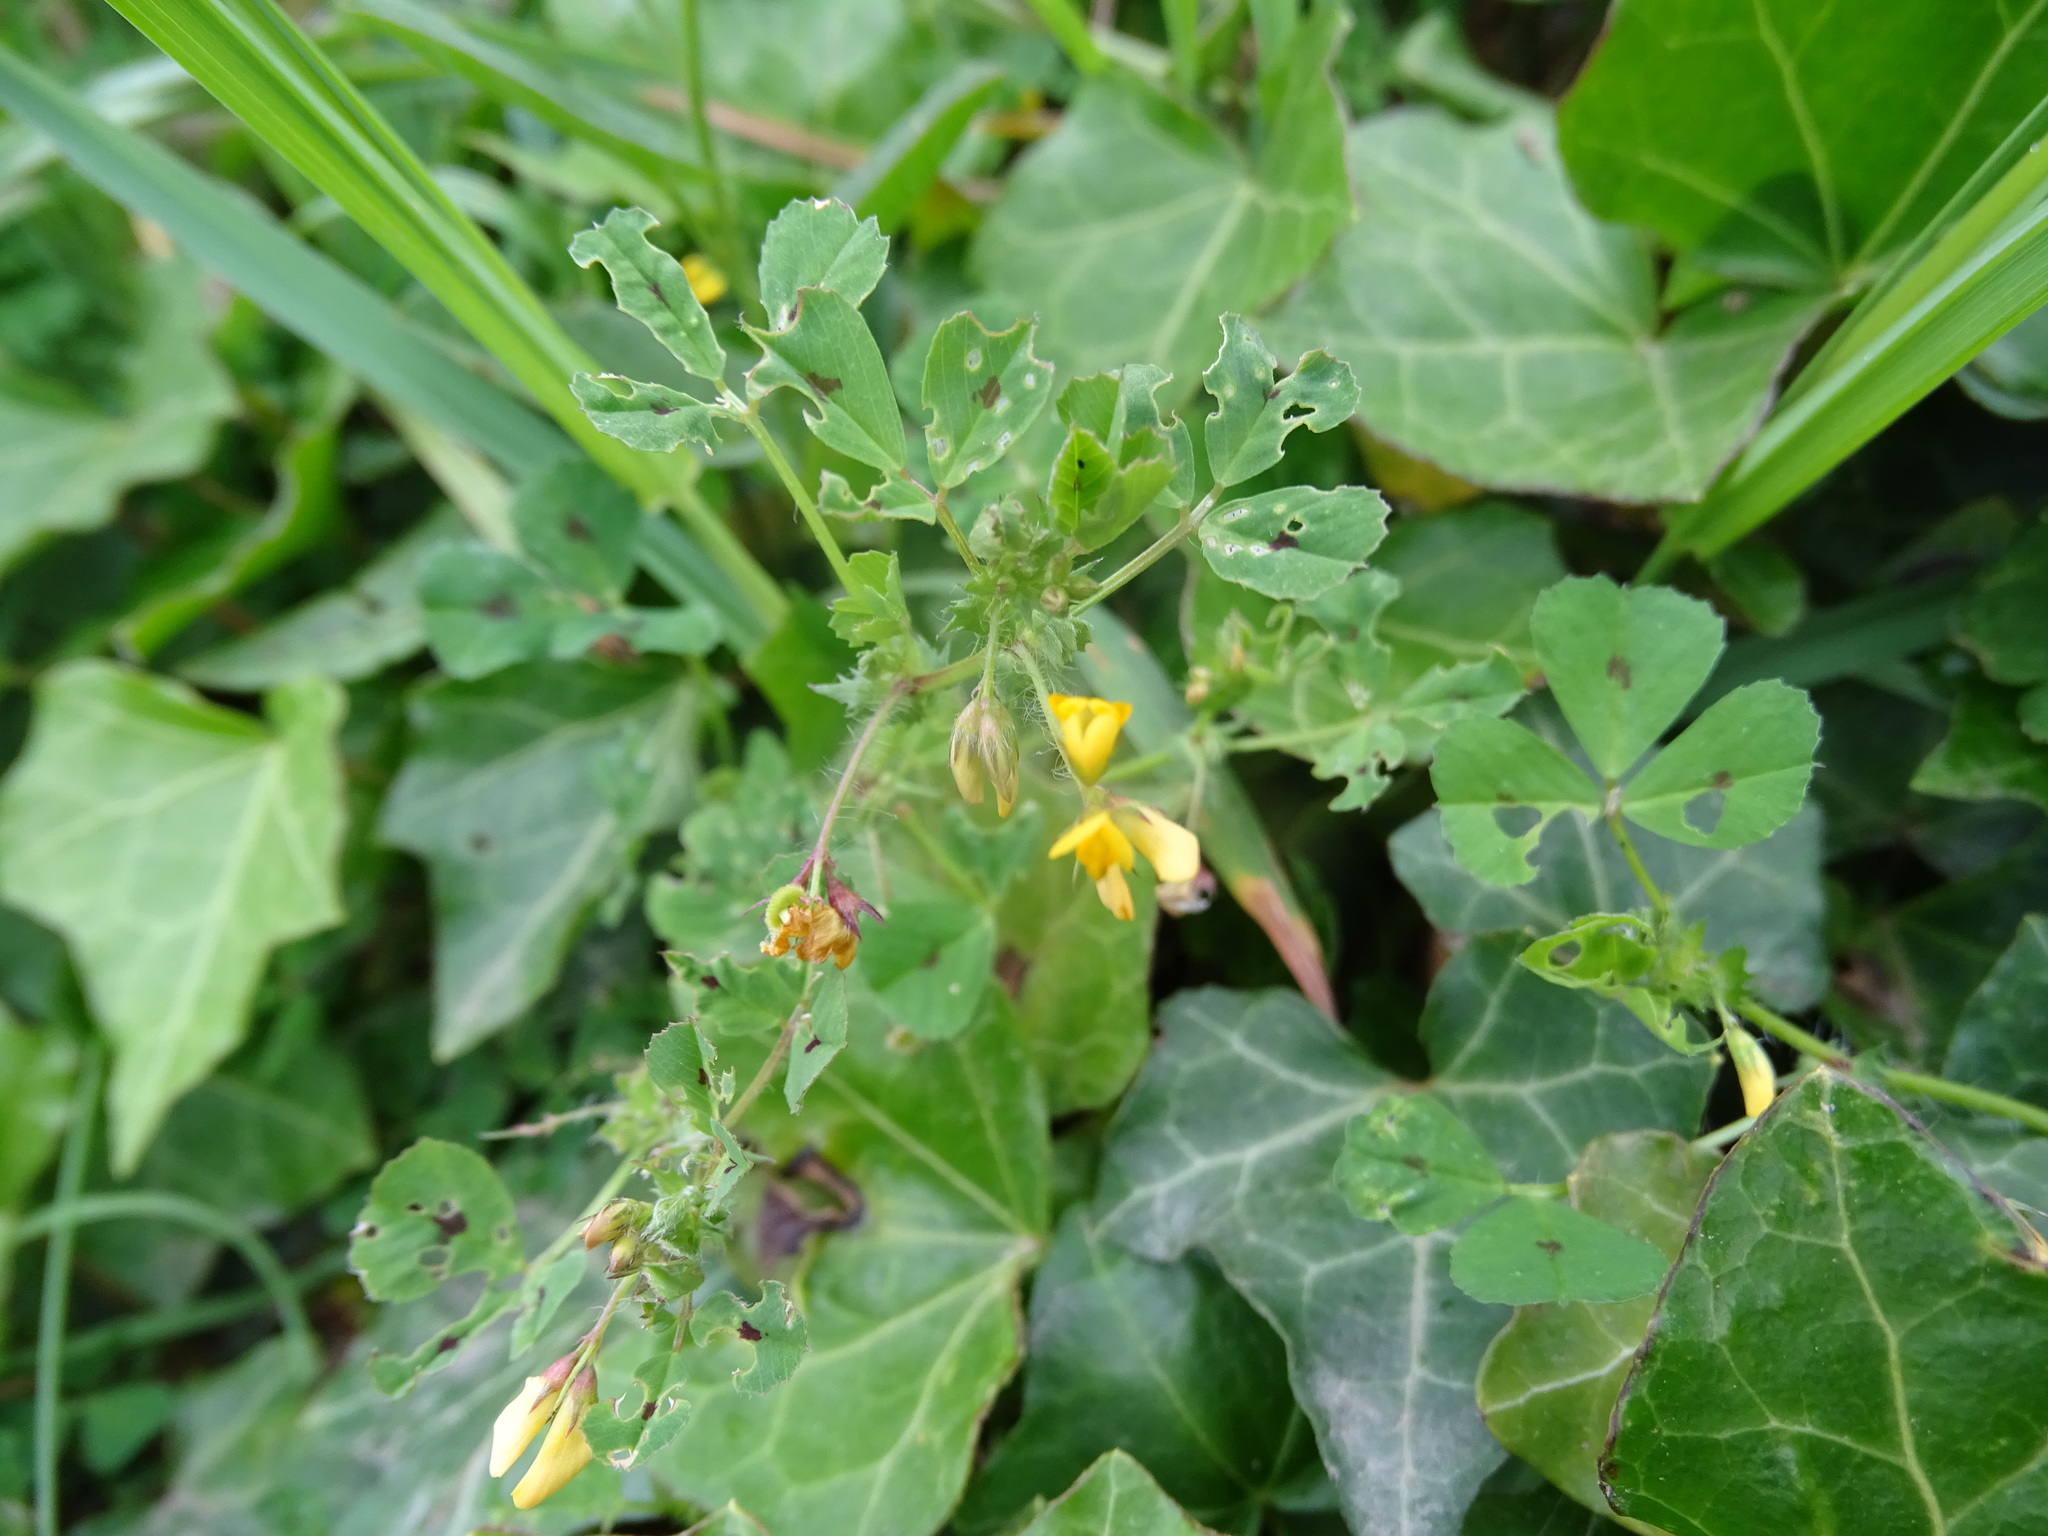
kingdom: Plantae
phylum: Tracheophyta
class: Magnoliopsida
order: Fabales
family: Fabaceae
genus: Medicago
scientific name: Medicago arabica
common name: Spotted medick
